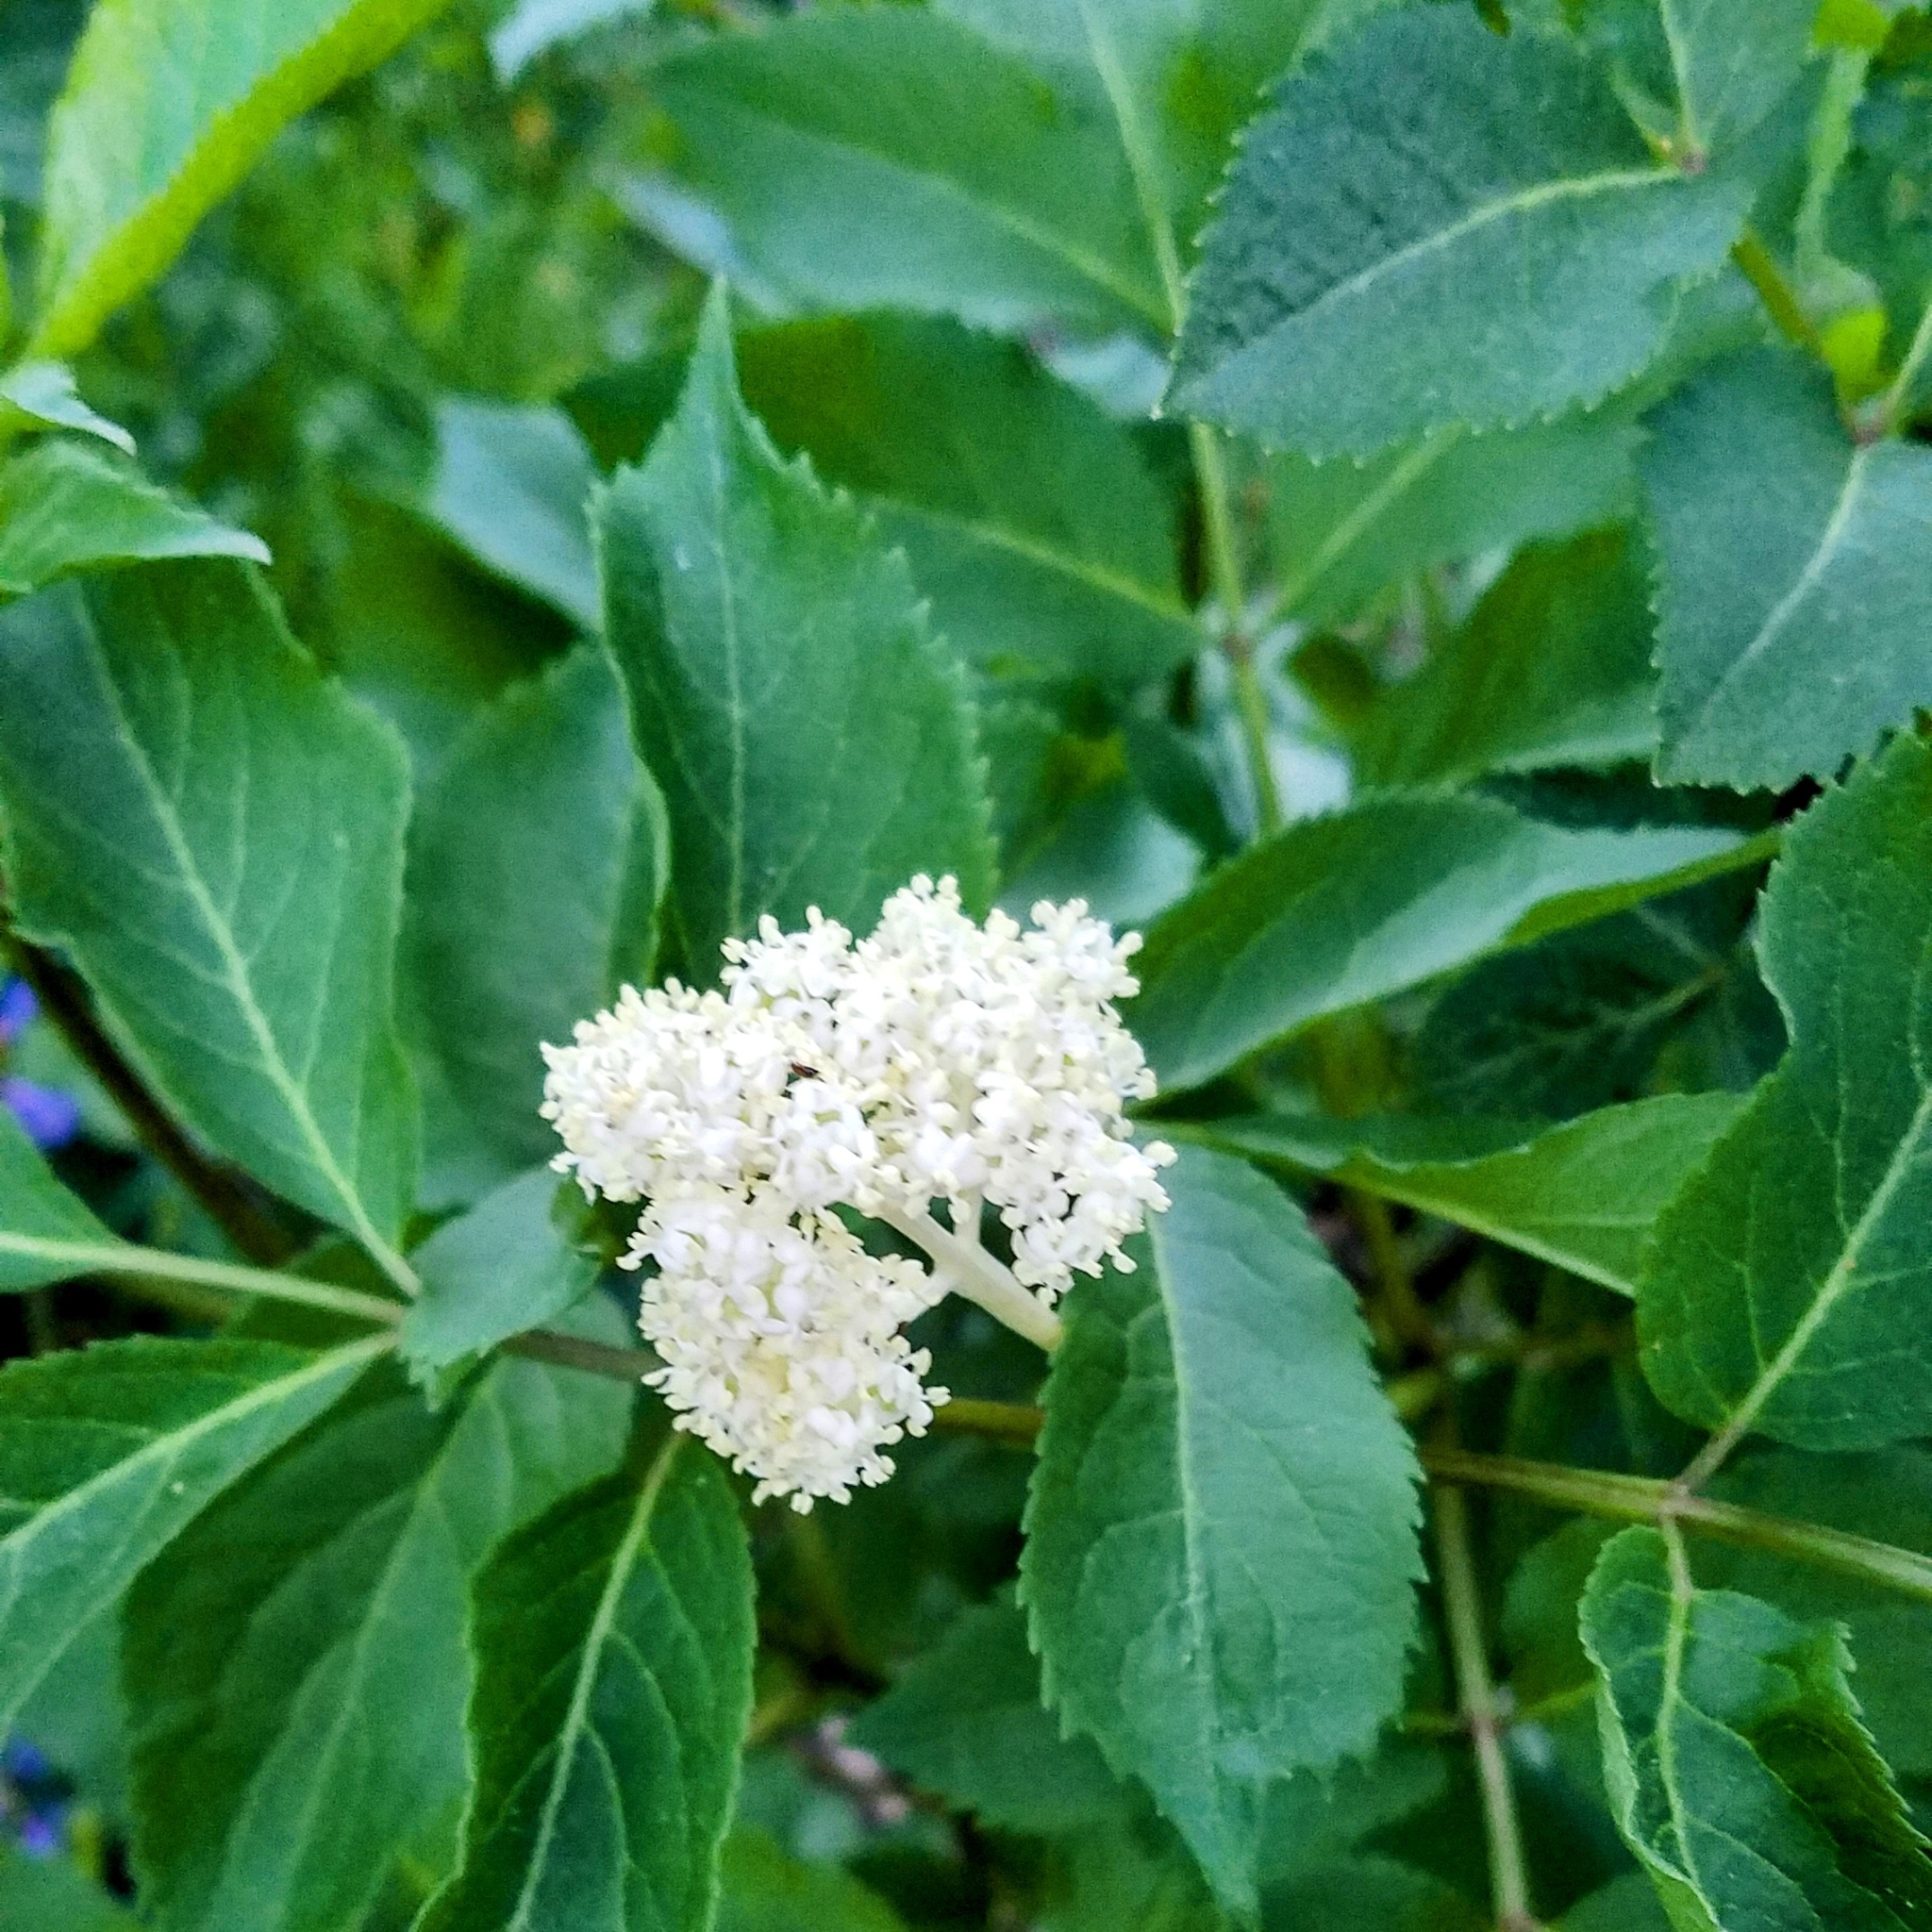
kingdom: Plantae
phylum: Tracheophyta
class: Magnoliopsida
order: Dipsacales
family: Viburnaceae
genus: Sambucus
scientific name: Sambucus racemosa
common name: Red-berried elder
